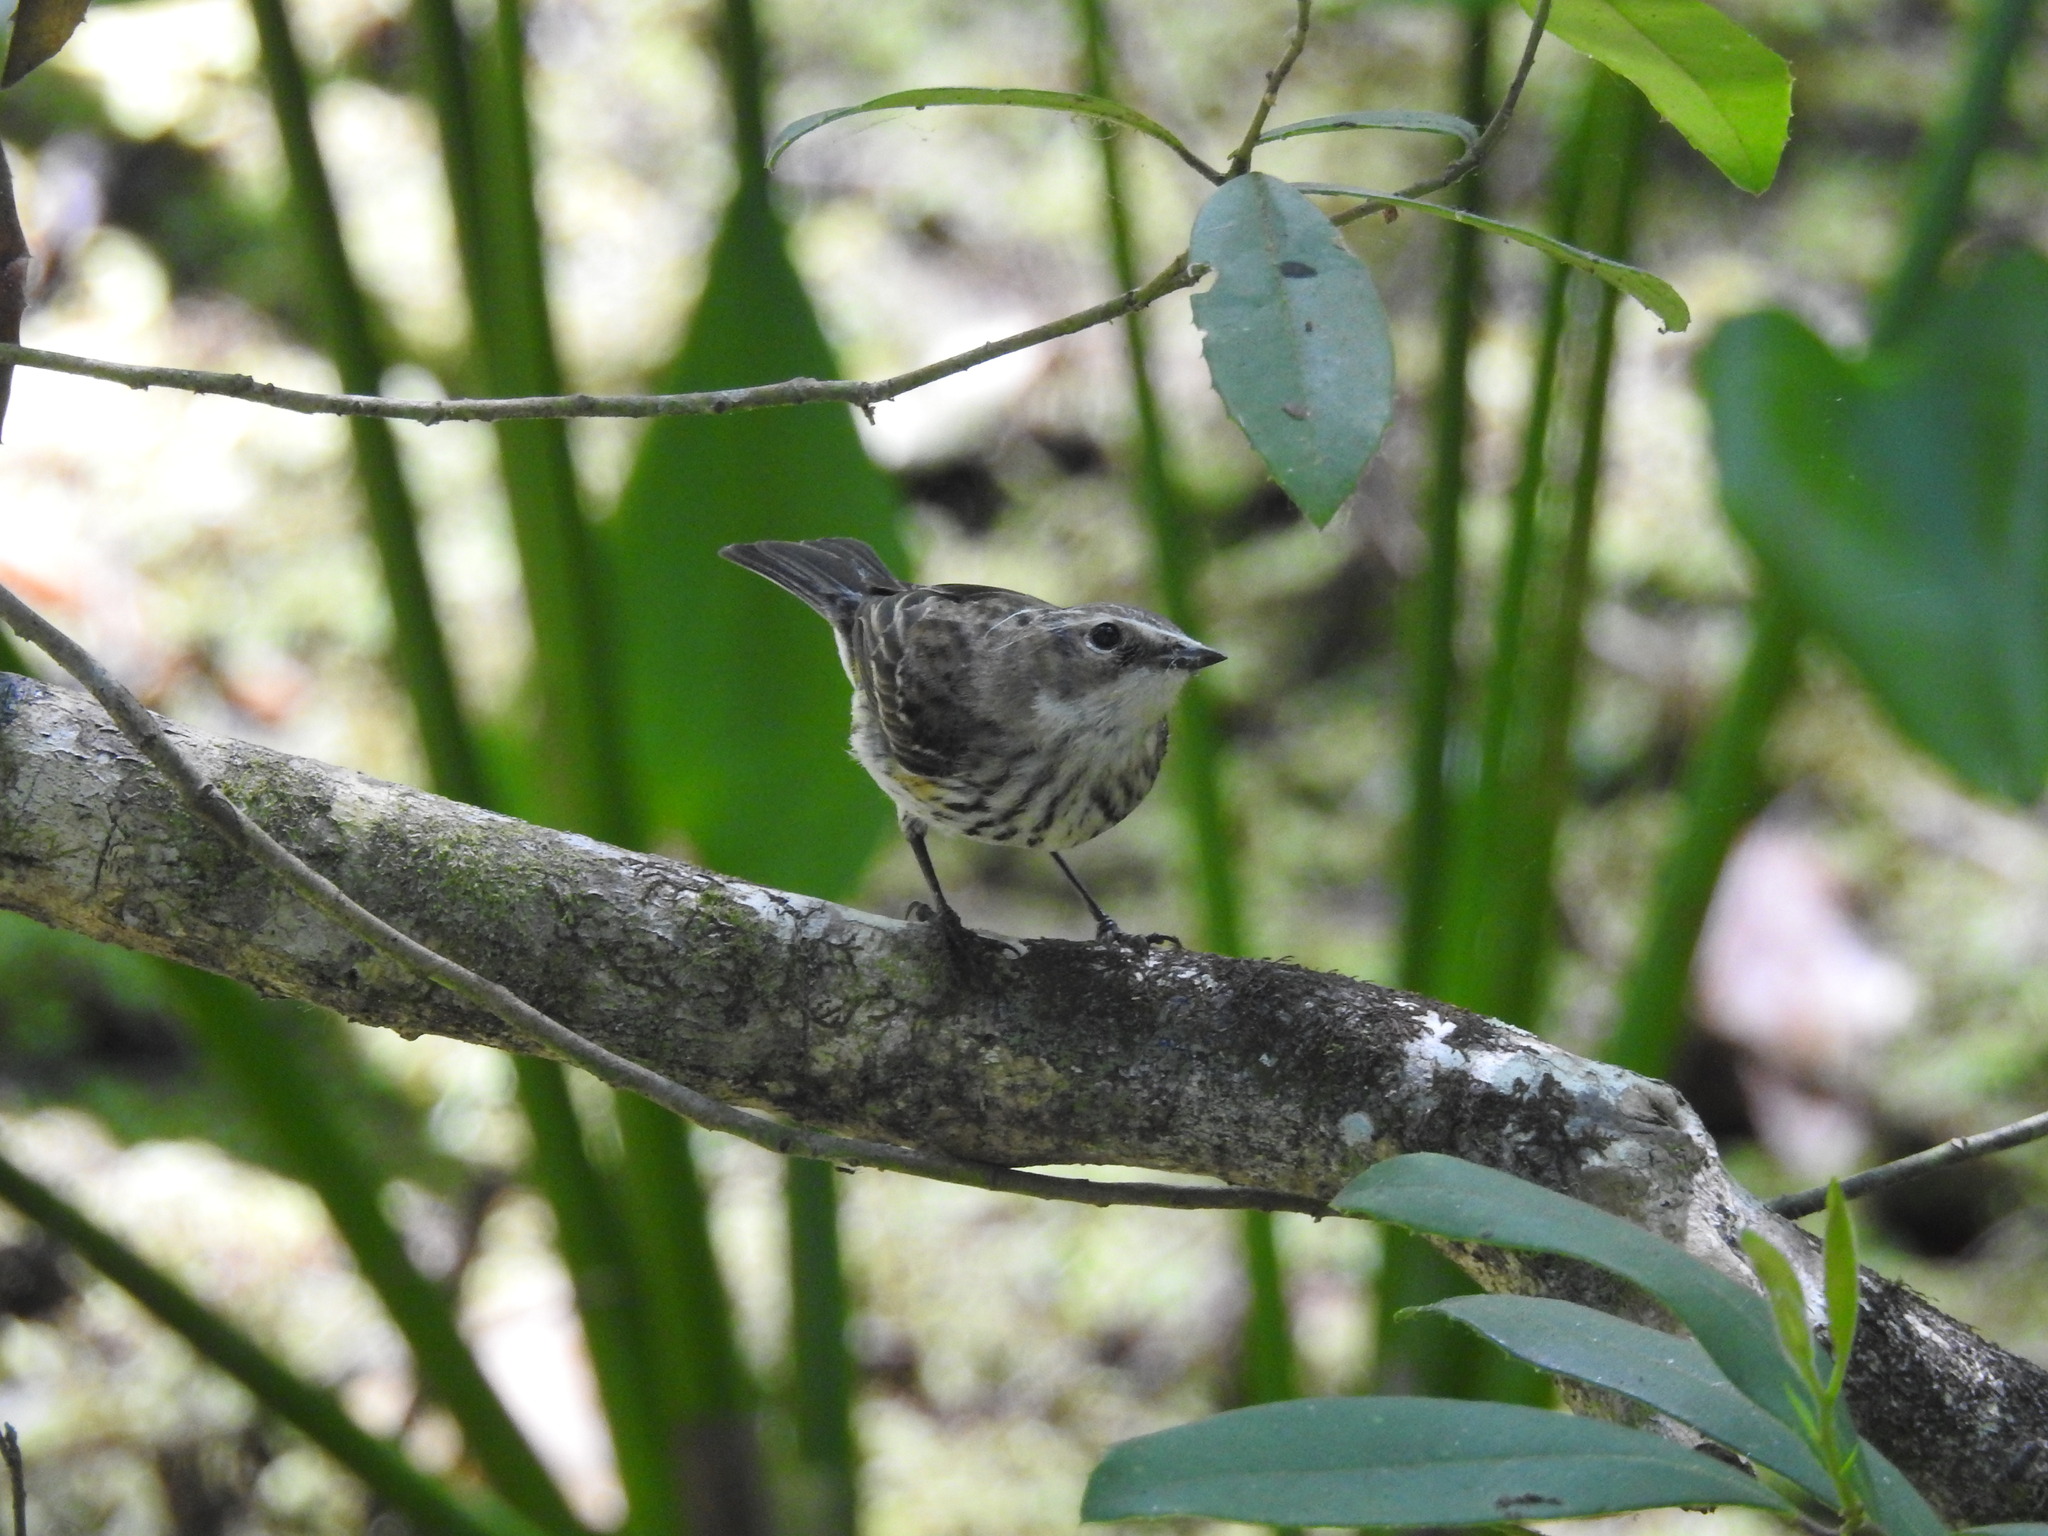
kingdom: Animalia
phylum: Chordata
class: Aves
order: Passeriformes
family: Parulidae
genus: Setophaga
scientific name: Setophaga coronata
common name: Myrtle warbler
